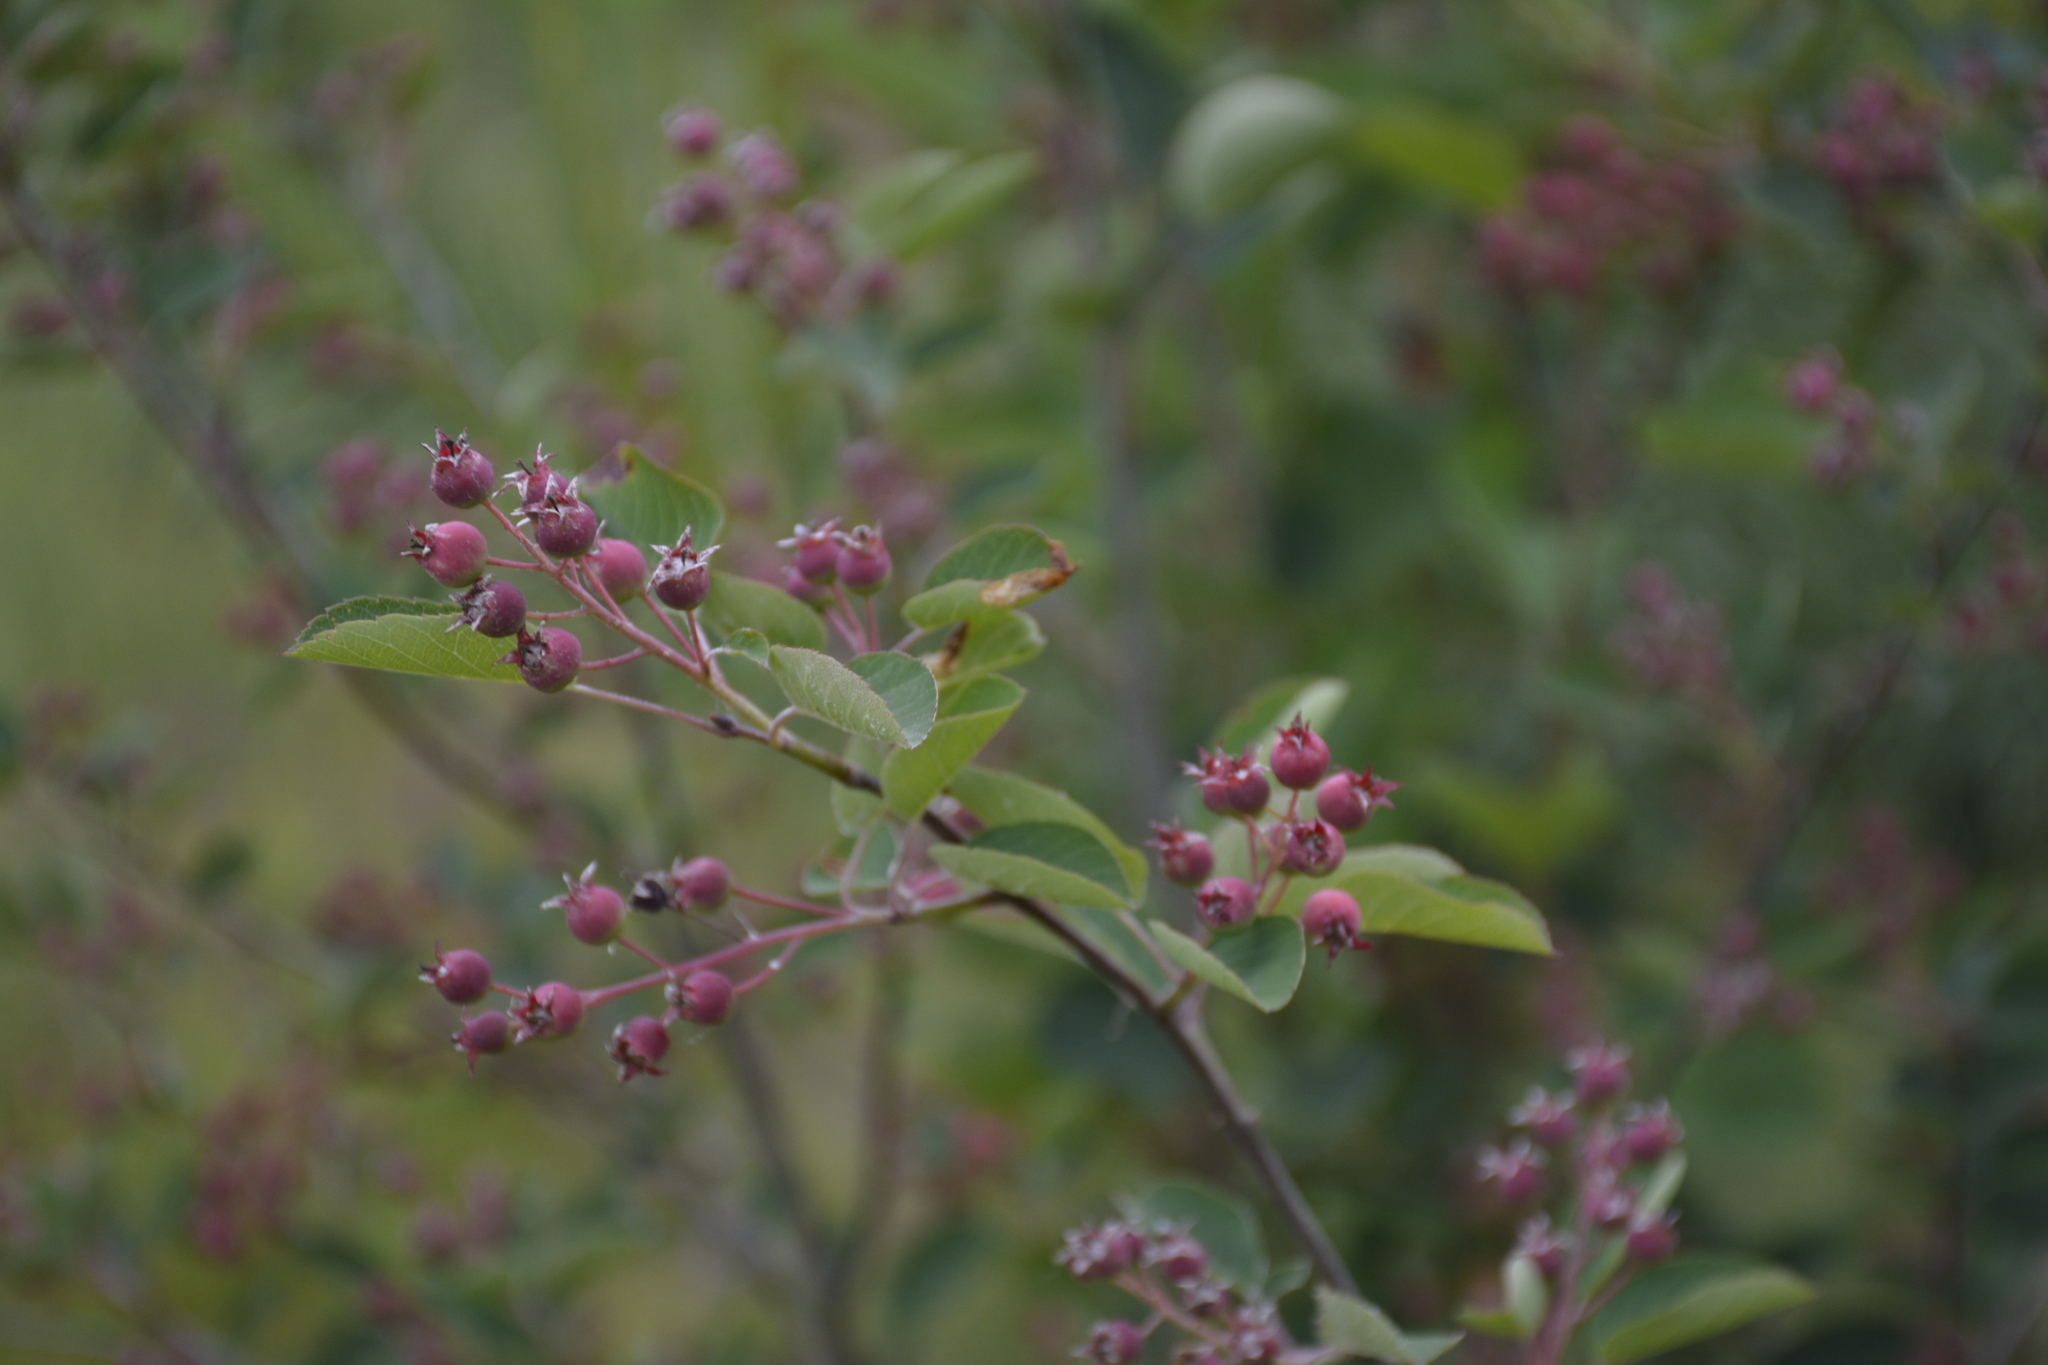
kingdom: Plantae
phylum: Tracheophyta
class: Magnoliopsida
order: Rosales
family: Rosaceae
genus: Amelanchier
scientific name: Amelanchier
